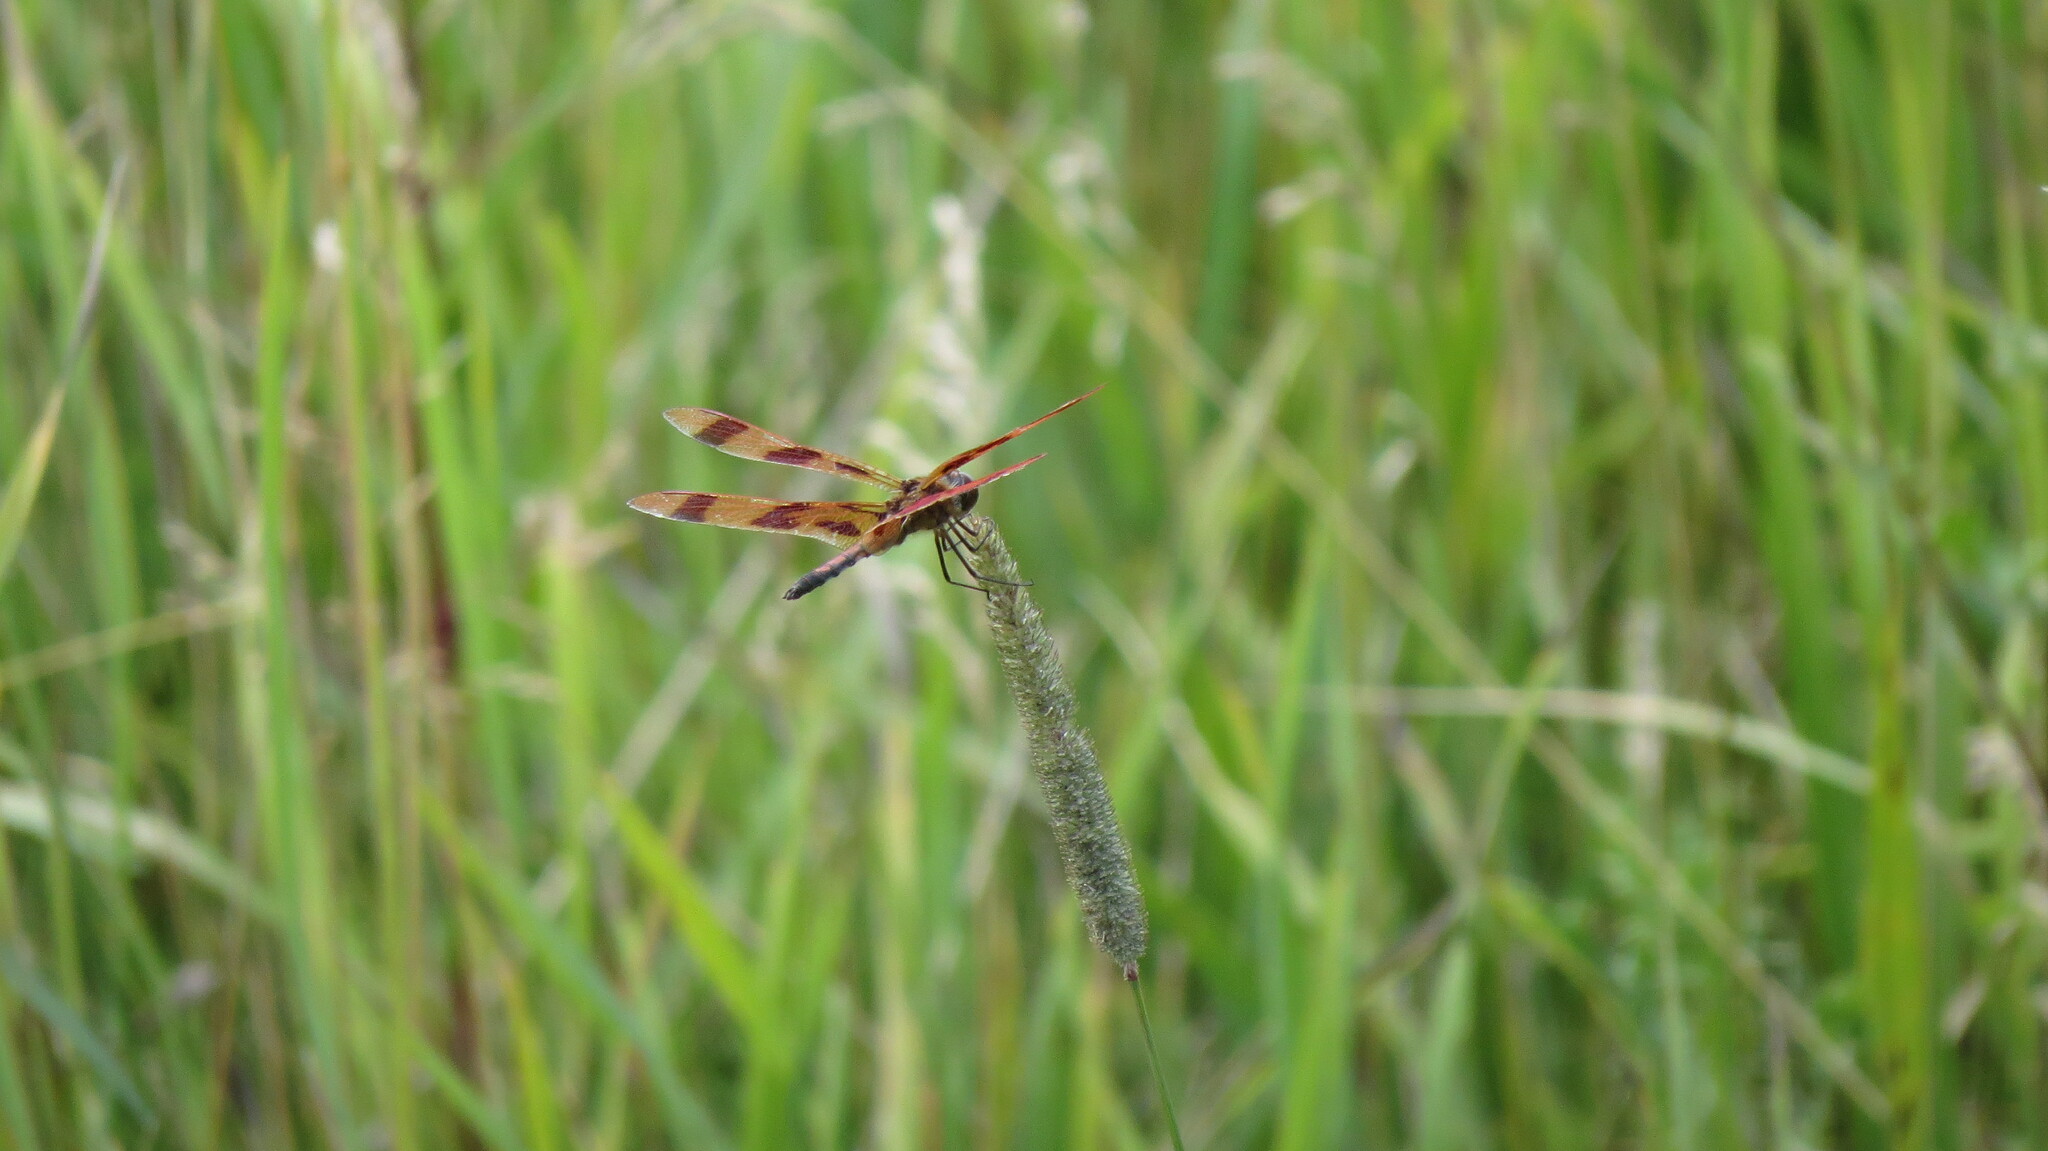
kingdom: Animalia
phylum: Arthropoda
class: Insecta
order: Odonata
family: Libellulidae
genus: Celithemis
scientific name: Celithemis eponina
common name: Halloween pennant
